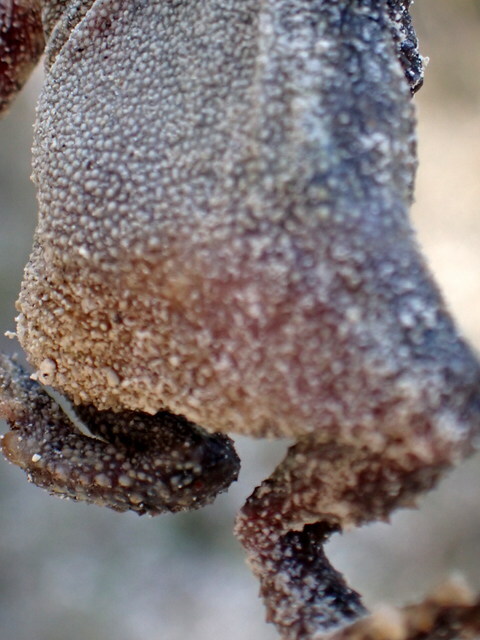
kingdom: Animalia
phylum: Chordata
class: Amphibia
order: Anura
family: Bufonidae
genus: Anaxyrus
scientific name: Anaxyrus terrestris
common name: Southern toad
